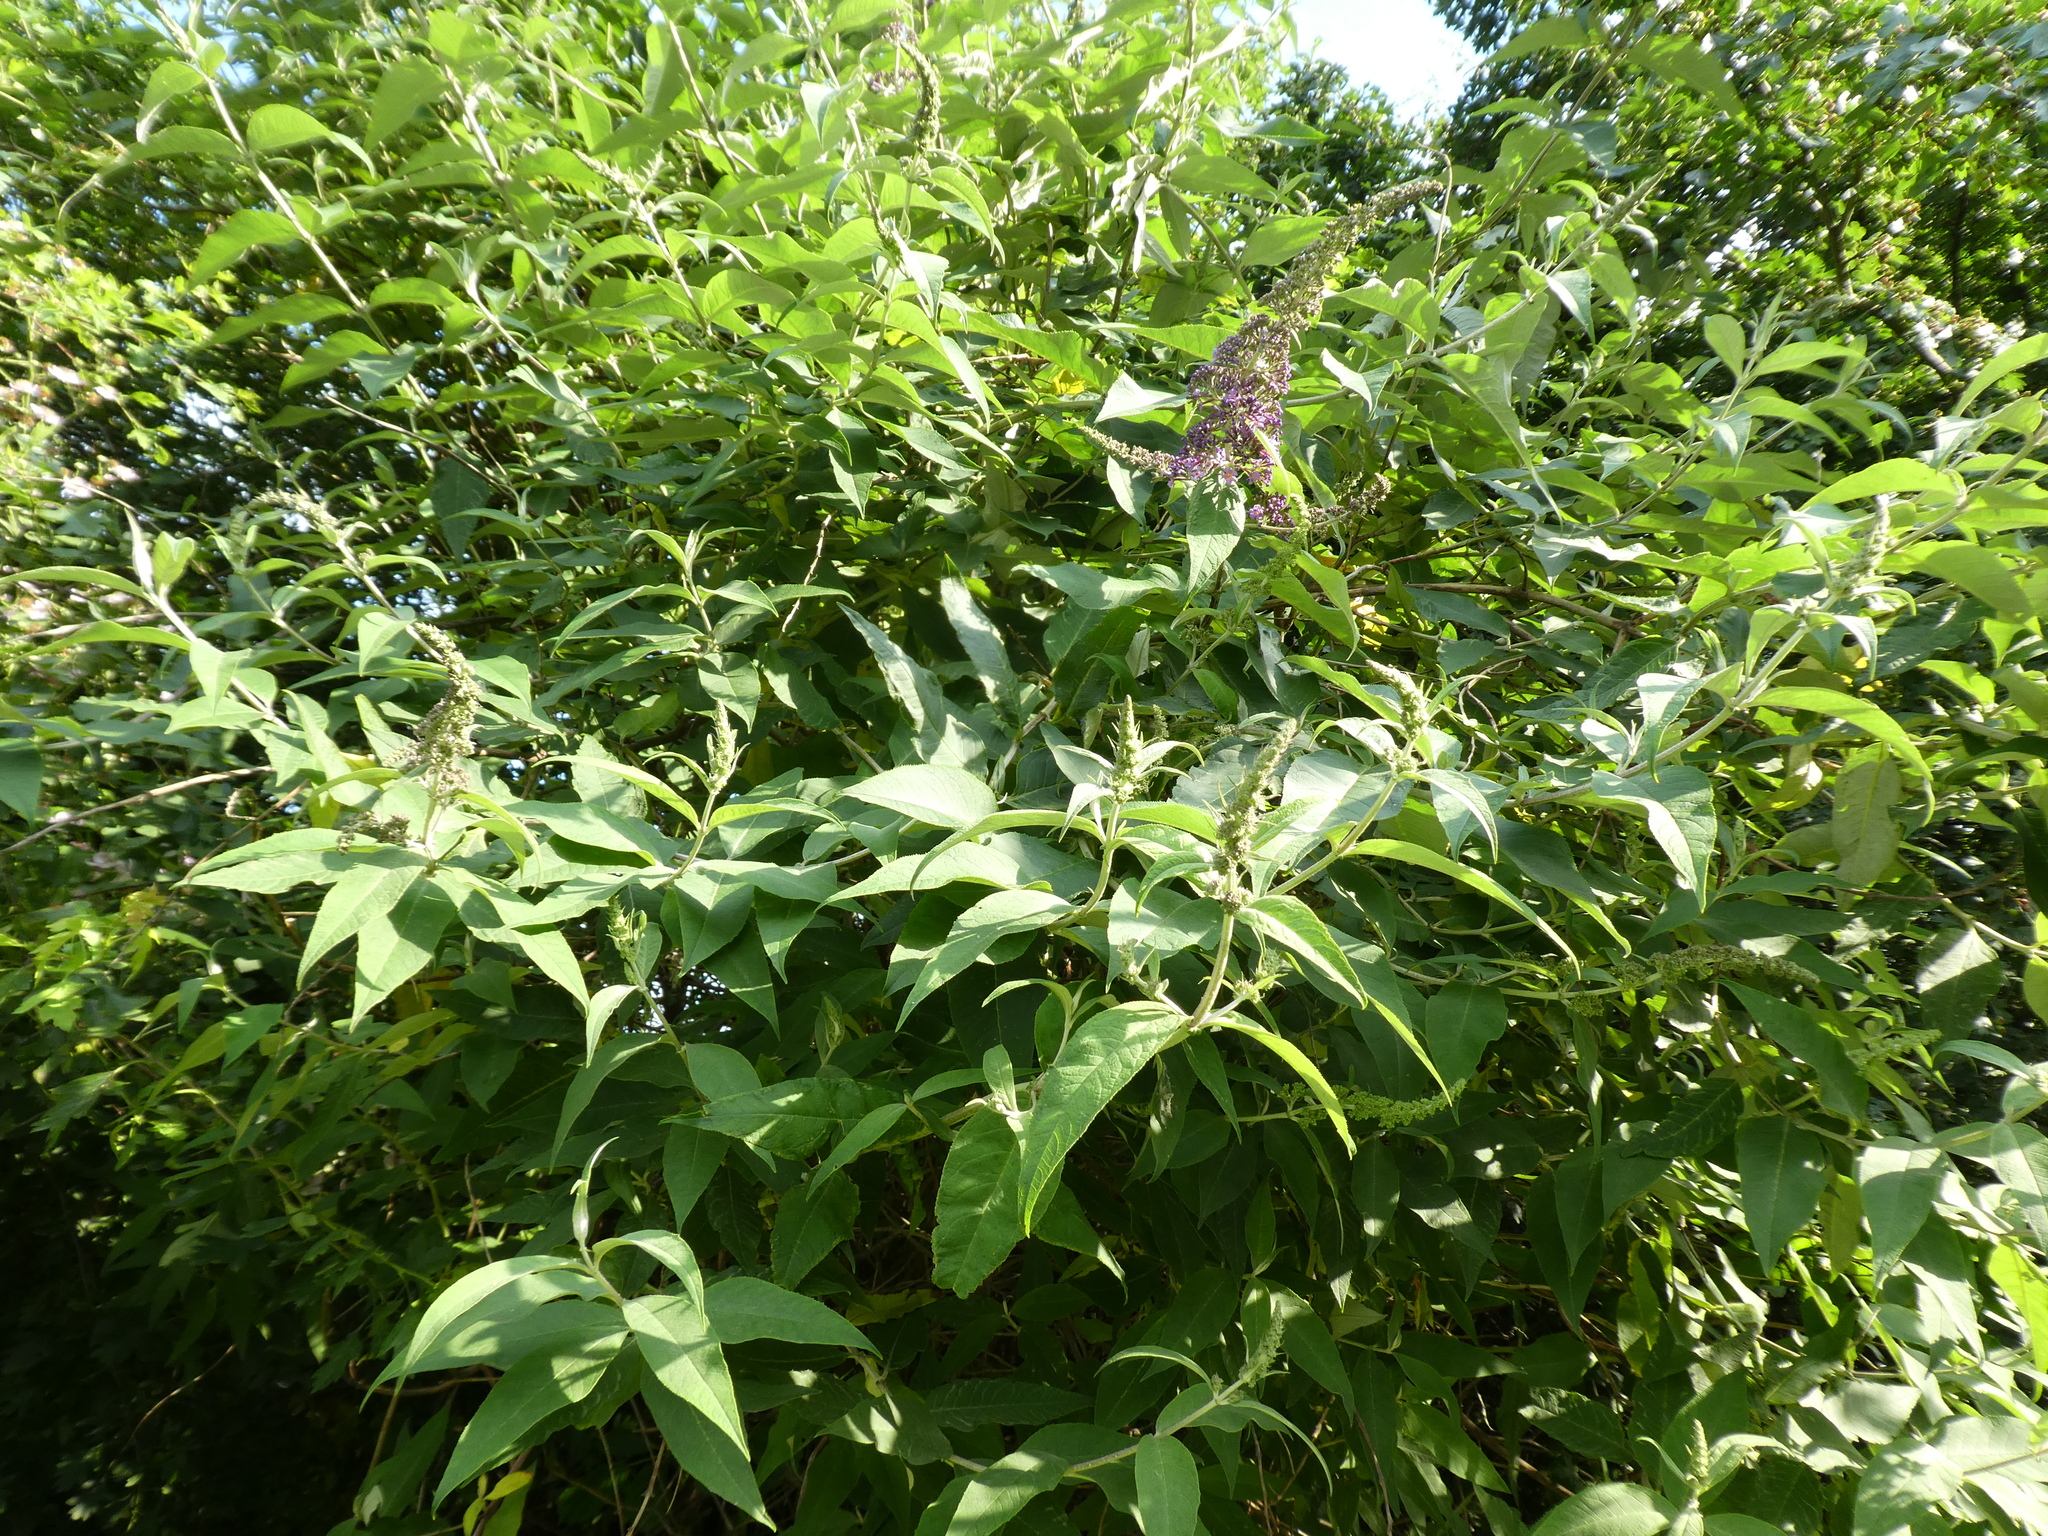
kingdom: Plantae
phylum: Tracheophyta
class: Magnoliopsida
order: Lamiales
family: Scrophulariaceae
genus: Buddleja
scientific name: Buddleja davidii
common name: Butterfly-bush
